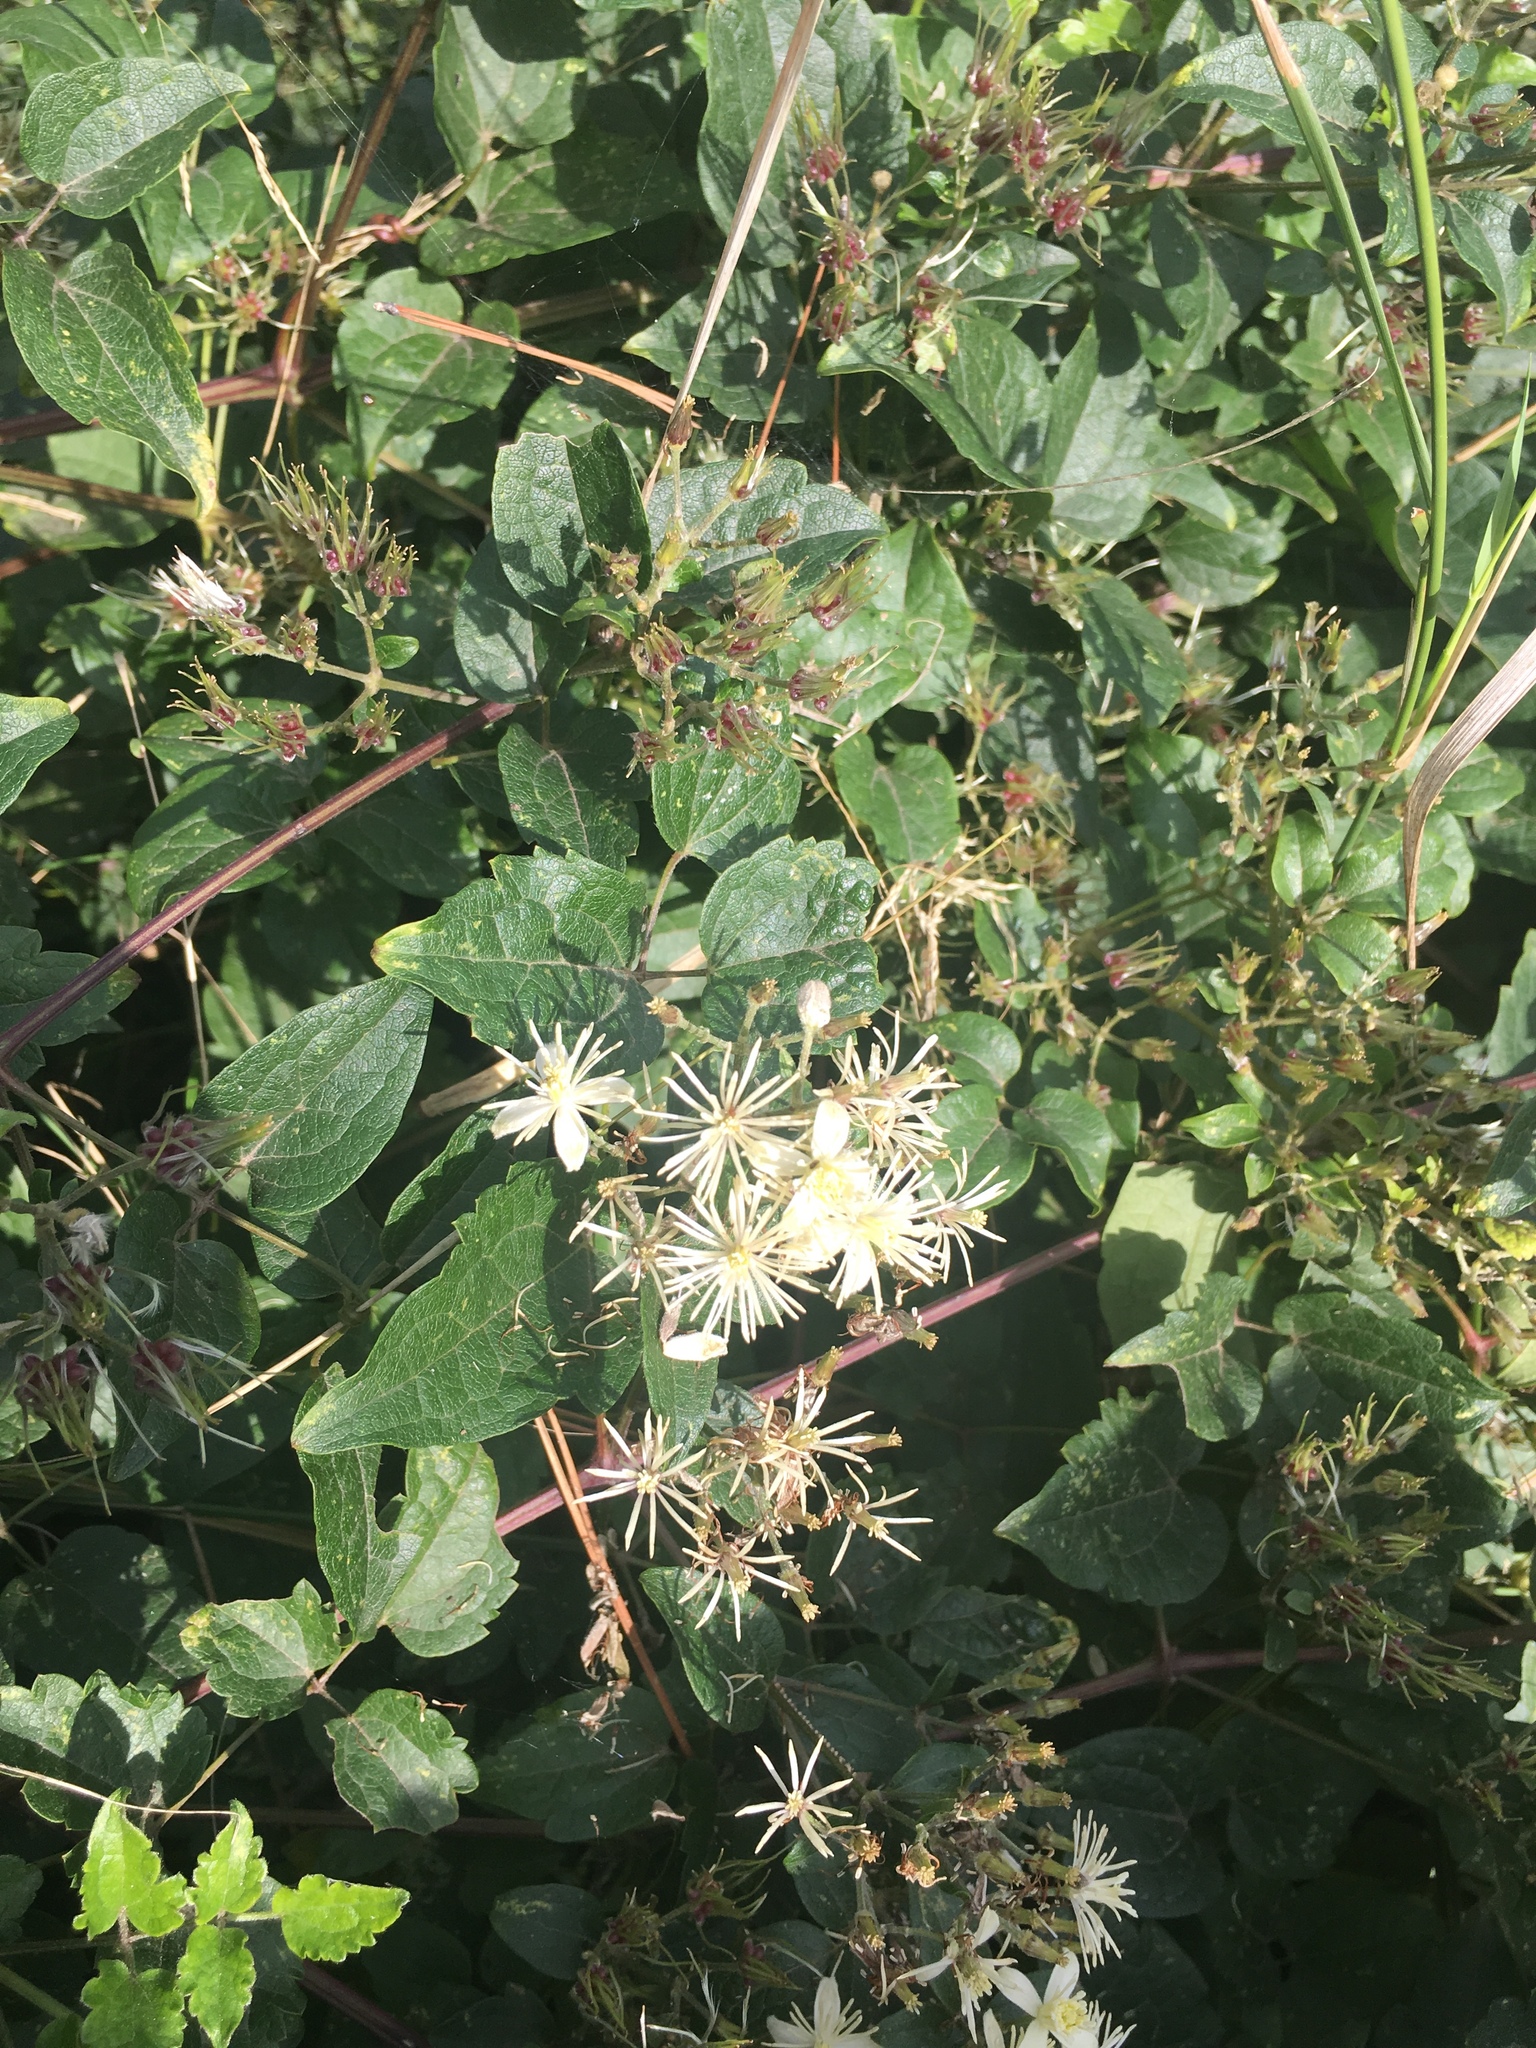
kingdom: Plantae
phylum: Tracheophyta
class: Magnoliopsida
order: Ranunculales
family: Ranunculaceae
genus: Clematis
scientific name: Clematis vitalba
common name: Evergreen clematis
